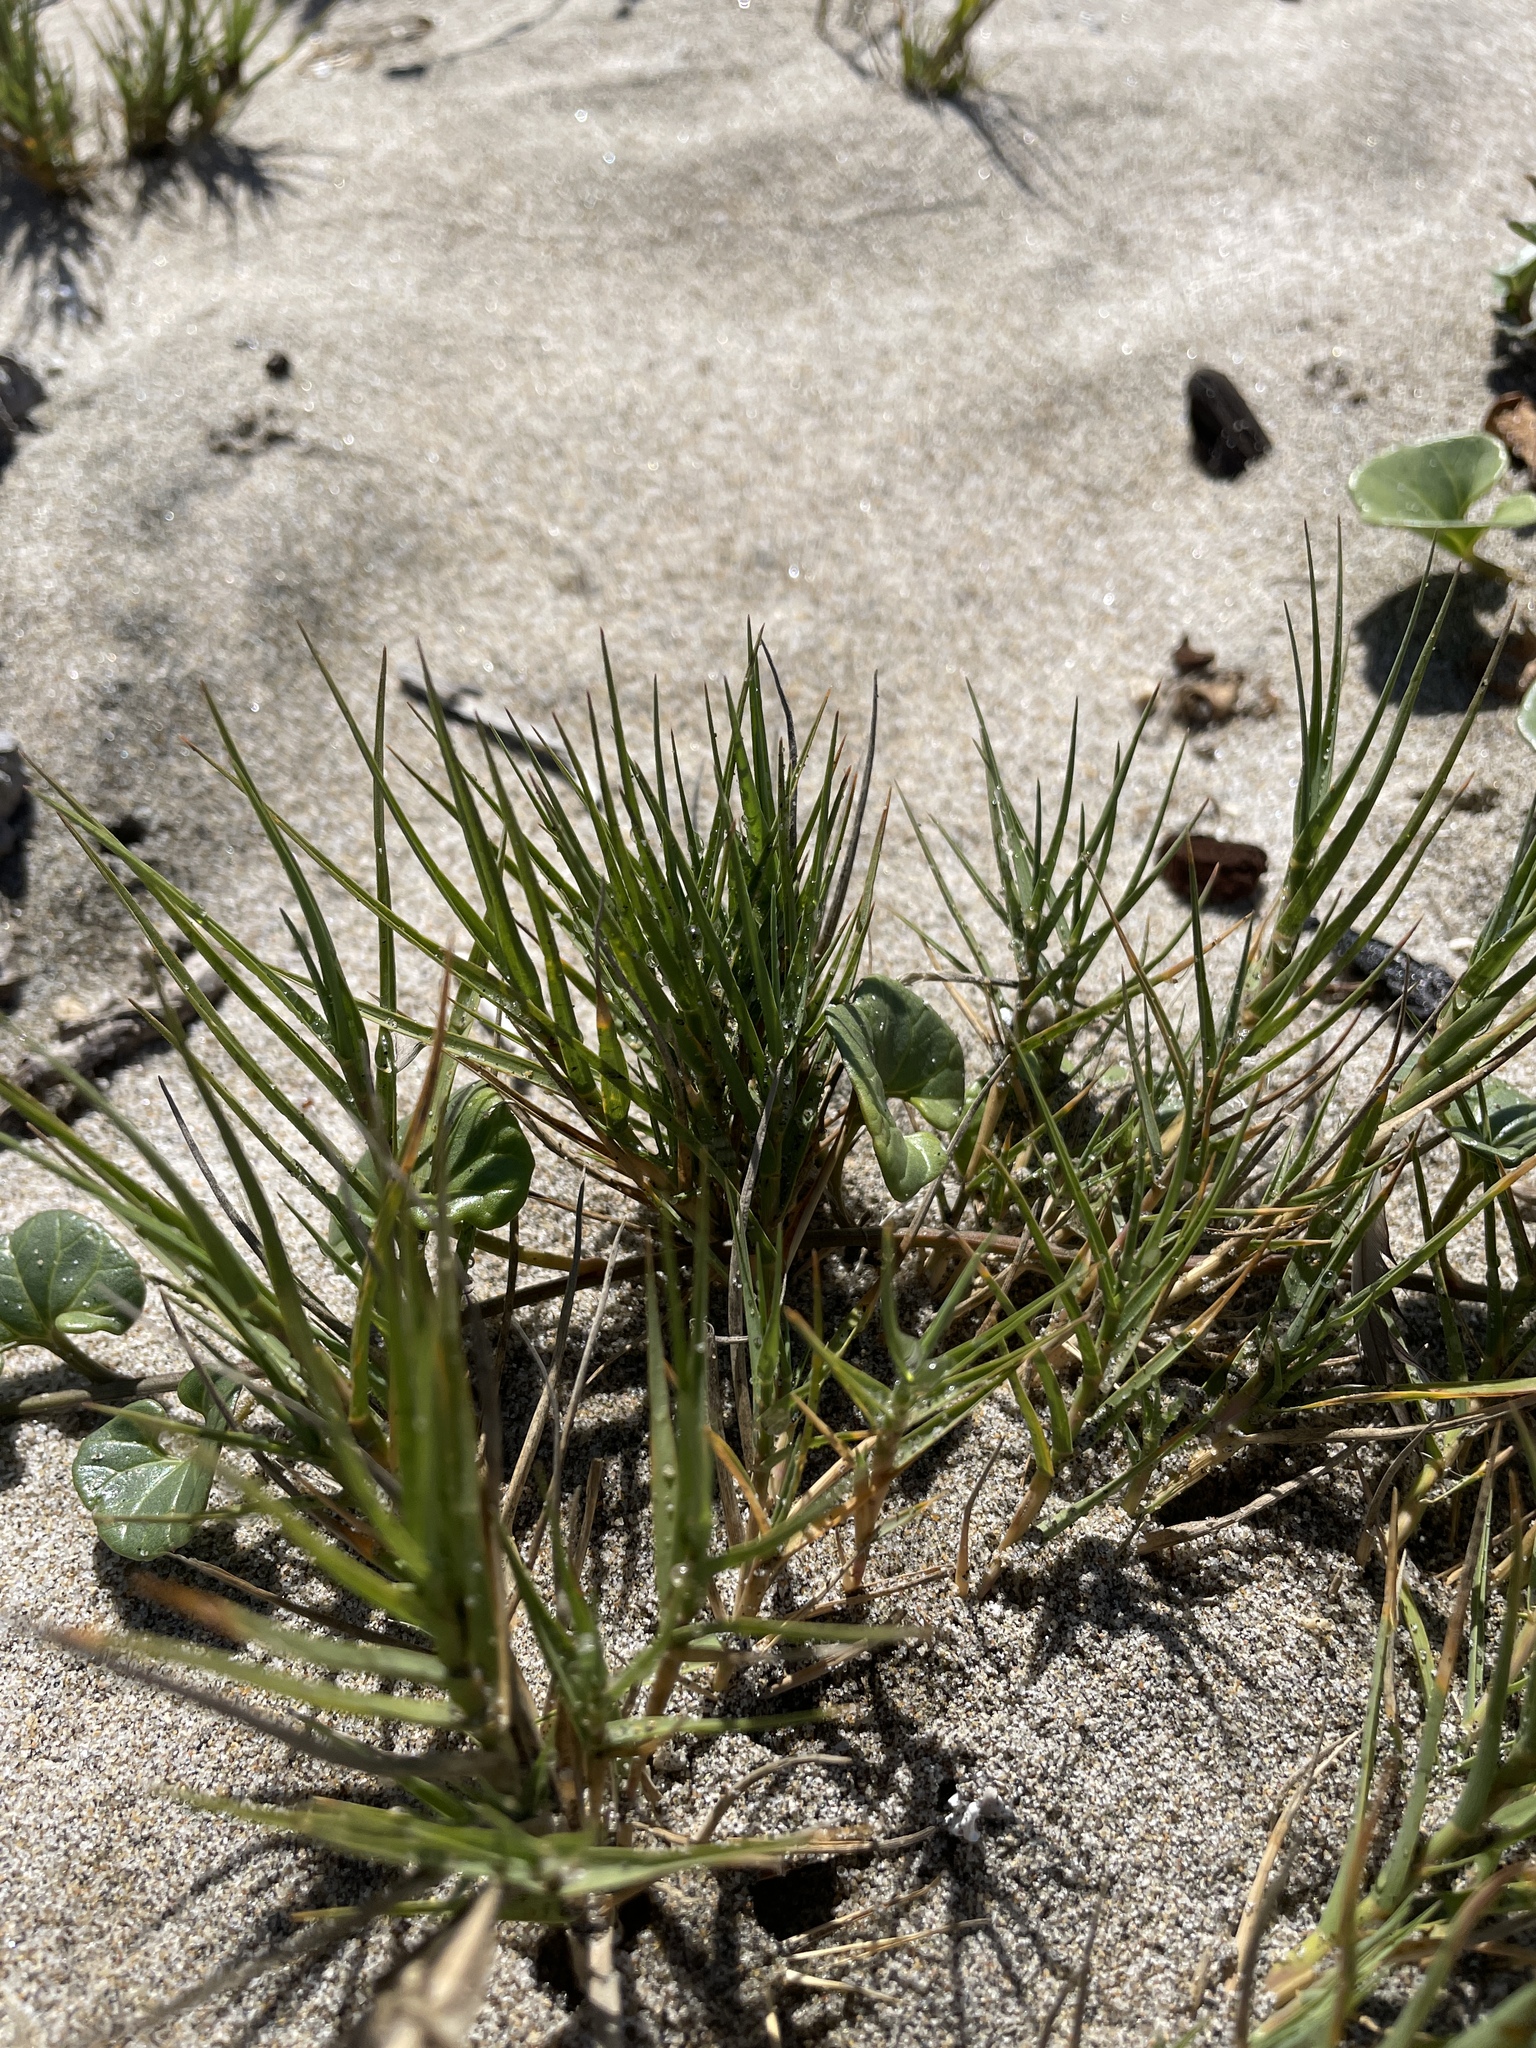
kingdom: Plantae
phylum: Tracheophyta
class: Liliopsida
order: Poales
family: Poaceae
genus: Distichlis
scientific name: Distichlis spicata
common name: Saltgrass
